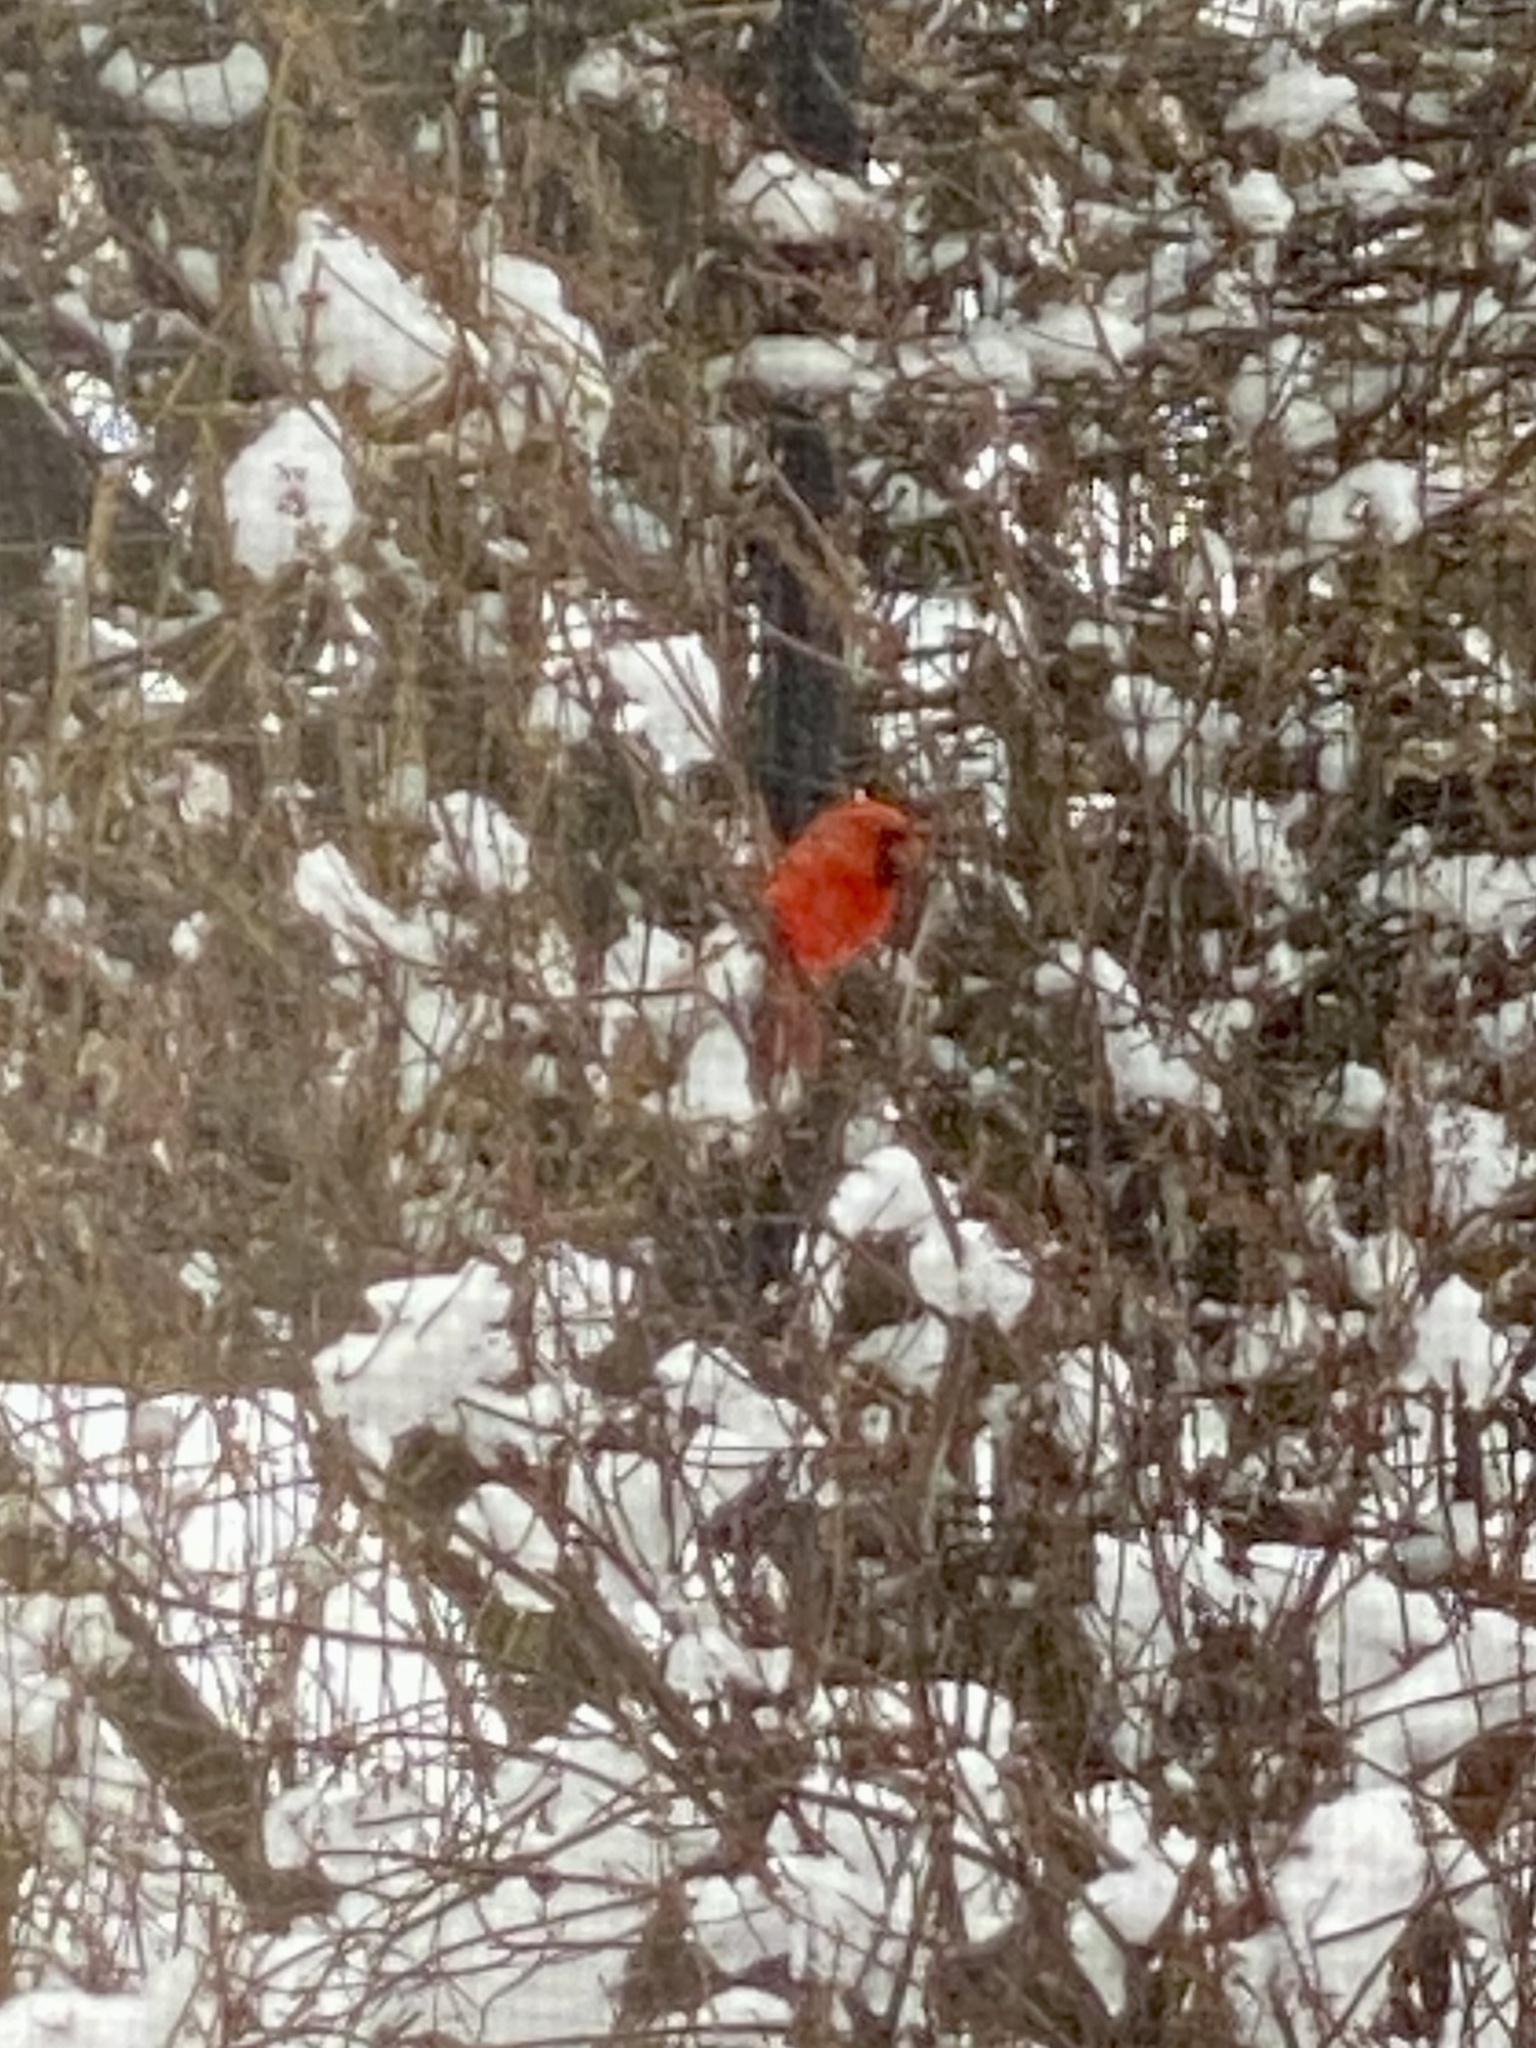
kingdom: Animalia
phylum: Chordata
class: Aves
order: Passeriformes
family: Cardinalidae
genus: Cardinalis
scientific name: Cardinalis cardinalis
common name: Northern cardinal
